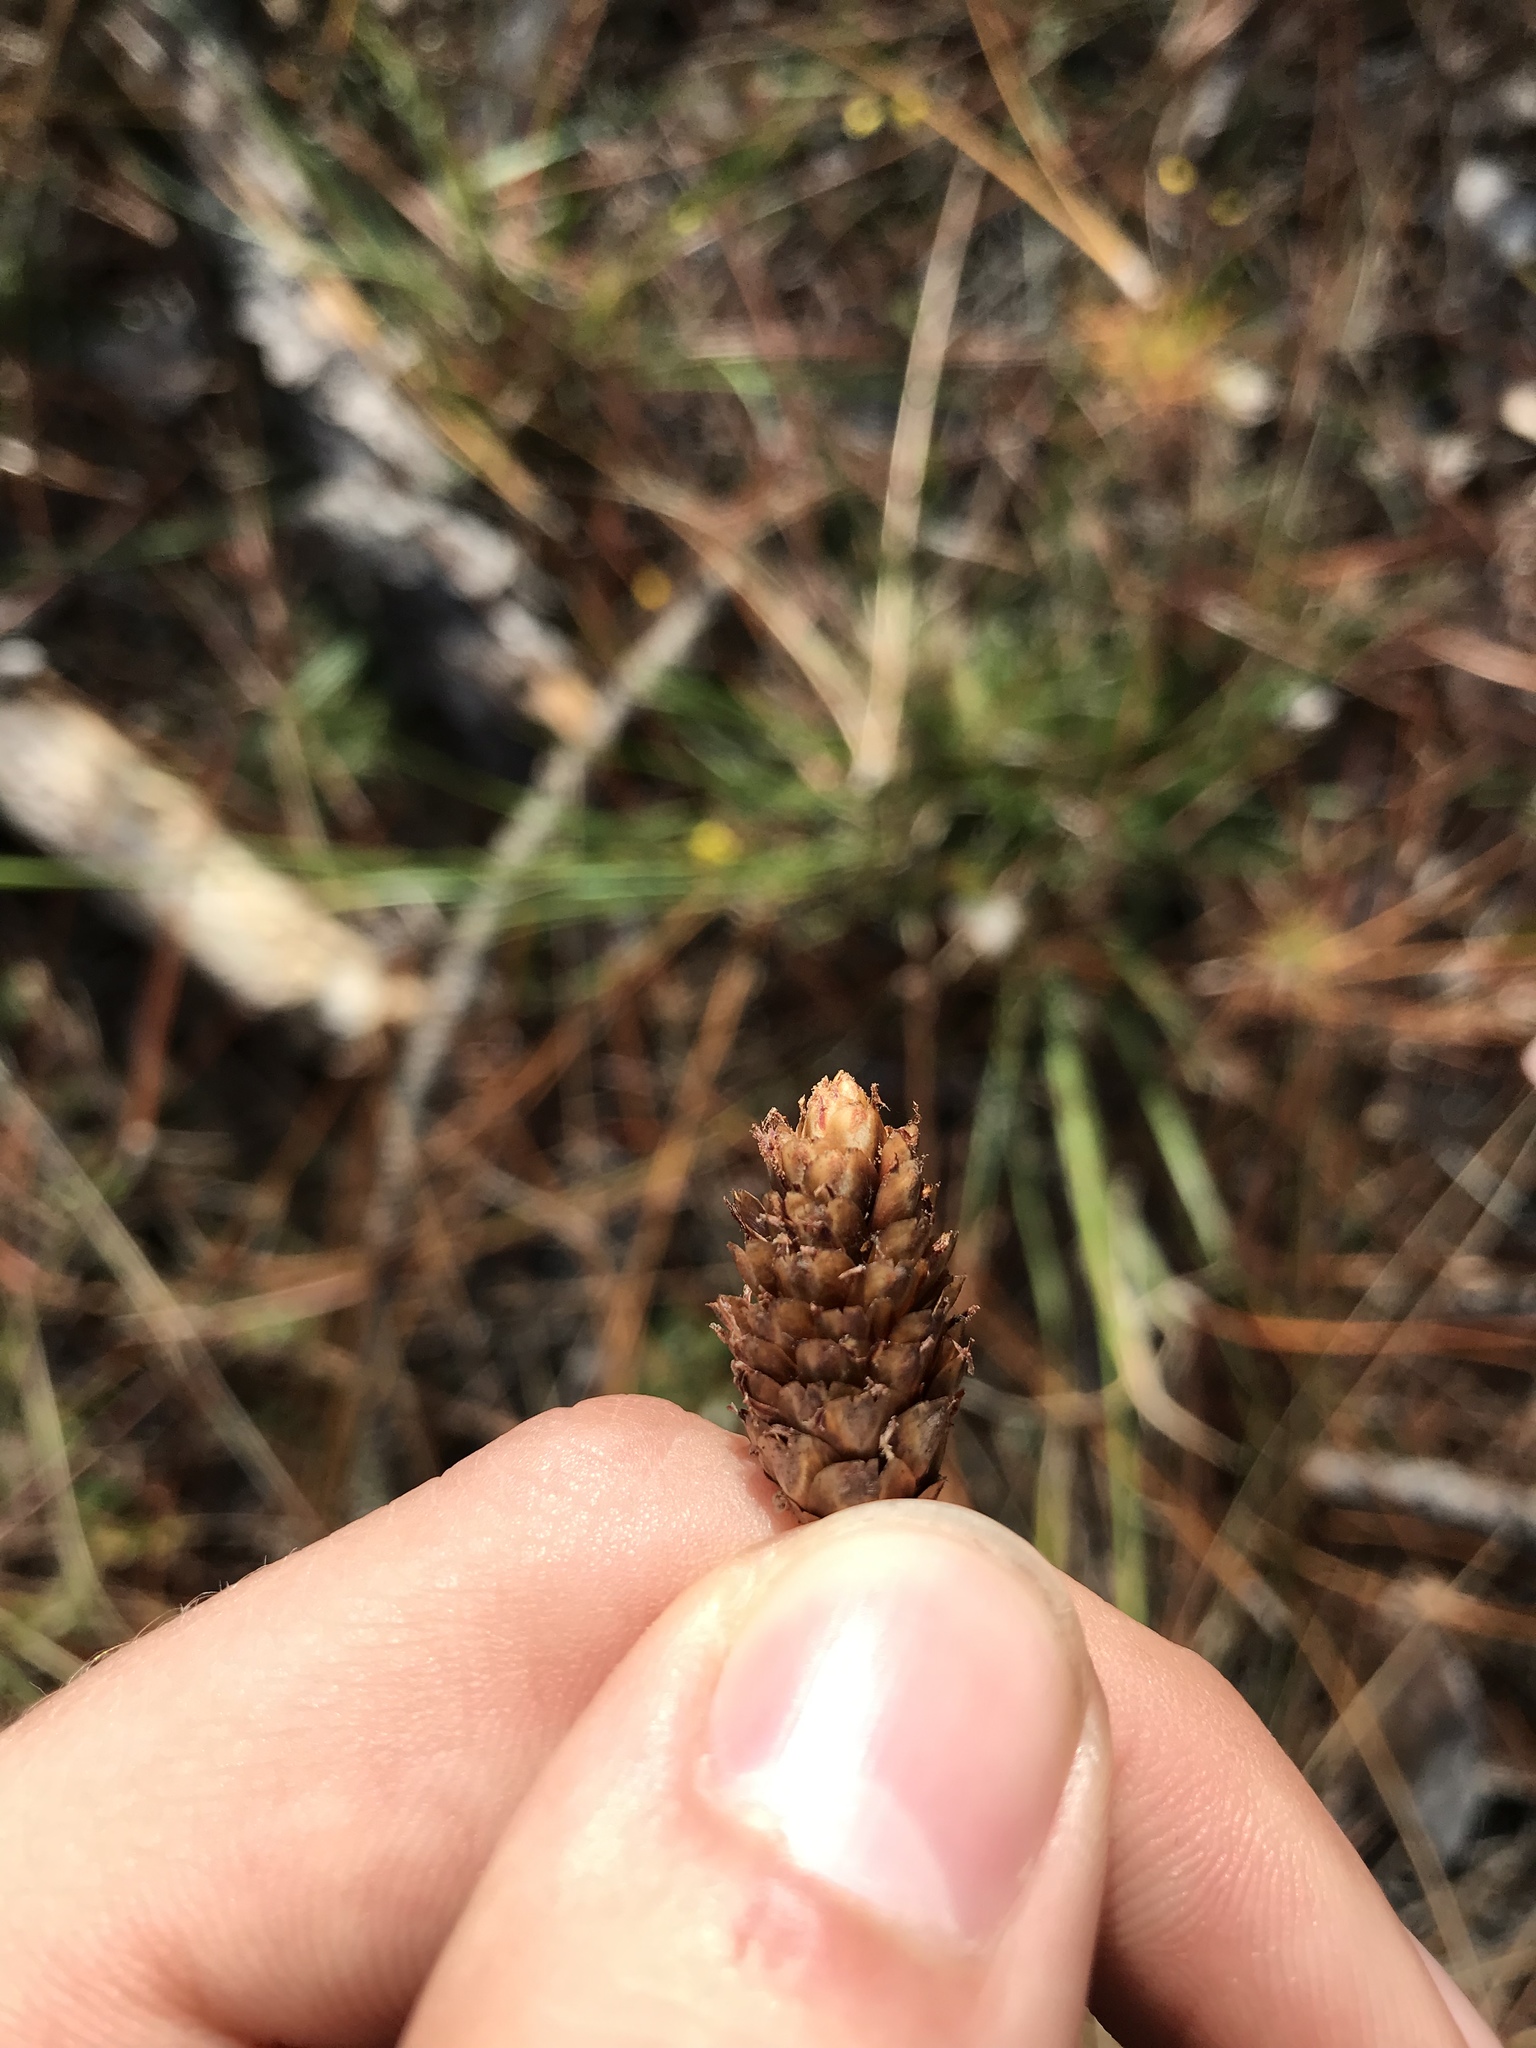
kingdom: Plantae
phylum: Tracheophyta
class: Liliopsida
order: Poales
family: Xyridaceae
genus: Xyris
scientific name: Xyris caroliniana
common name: Carolina yellow-eyed-grass
